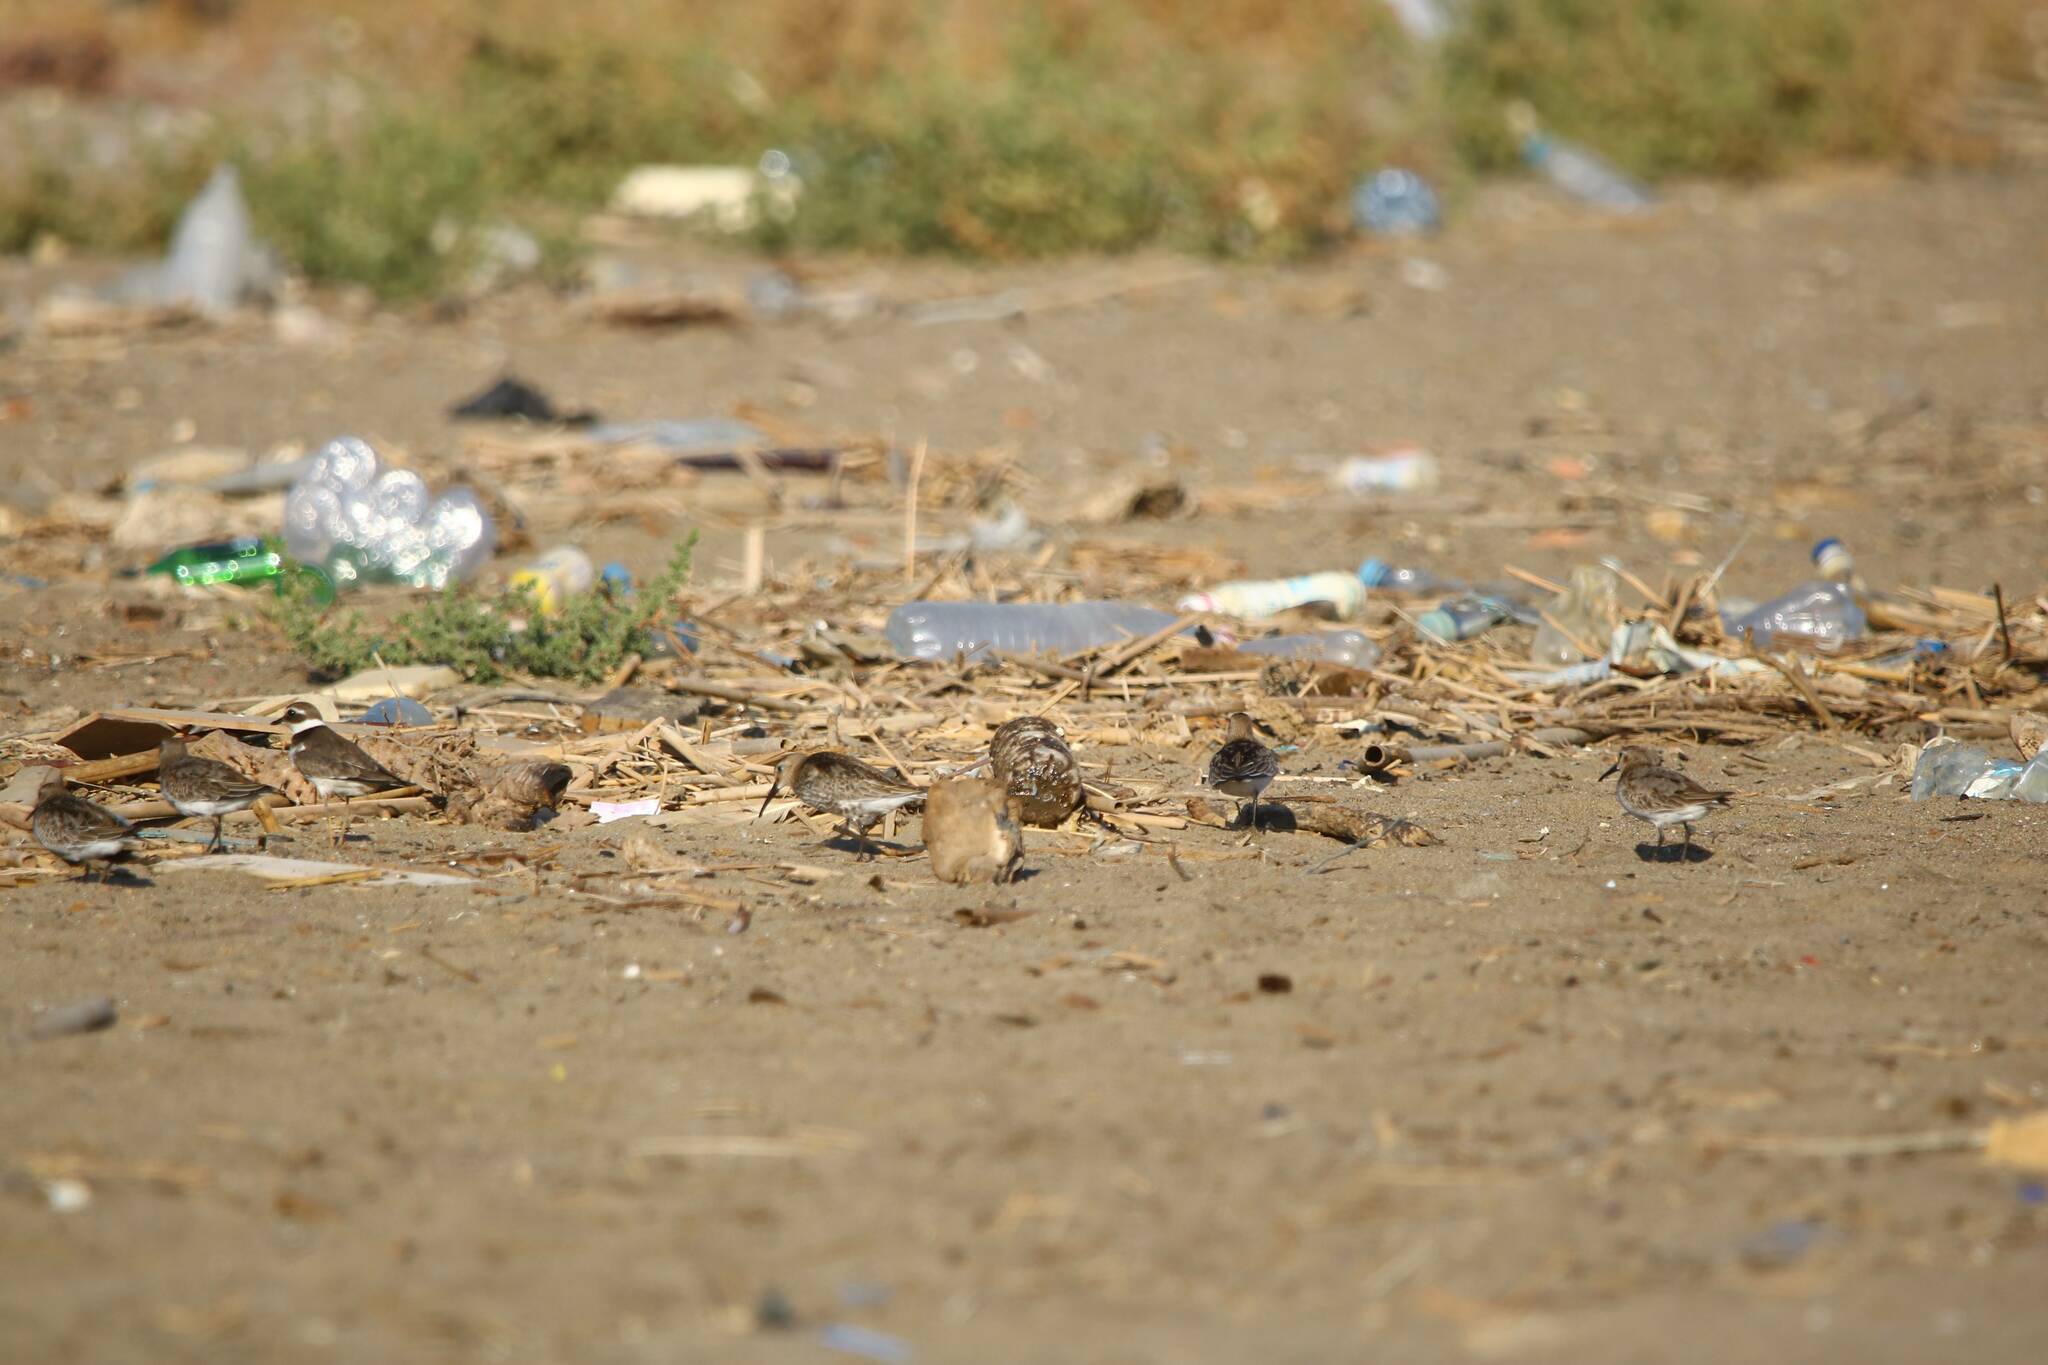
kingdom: Animalia
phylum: Chordata
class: Aves
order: Charadriiformes
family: Scolopacidae
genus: Calidris
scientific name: Calidris alpina
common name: Dunlin
